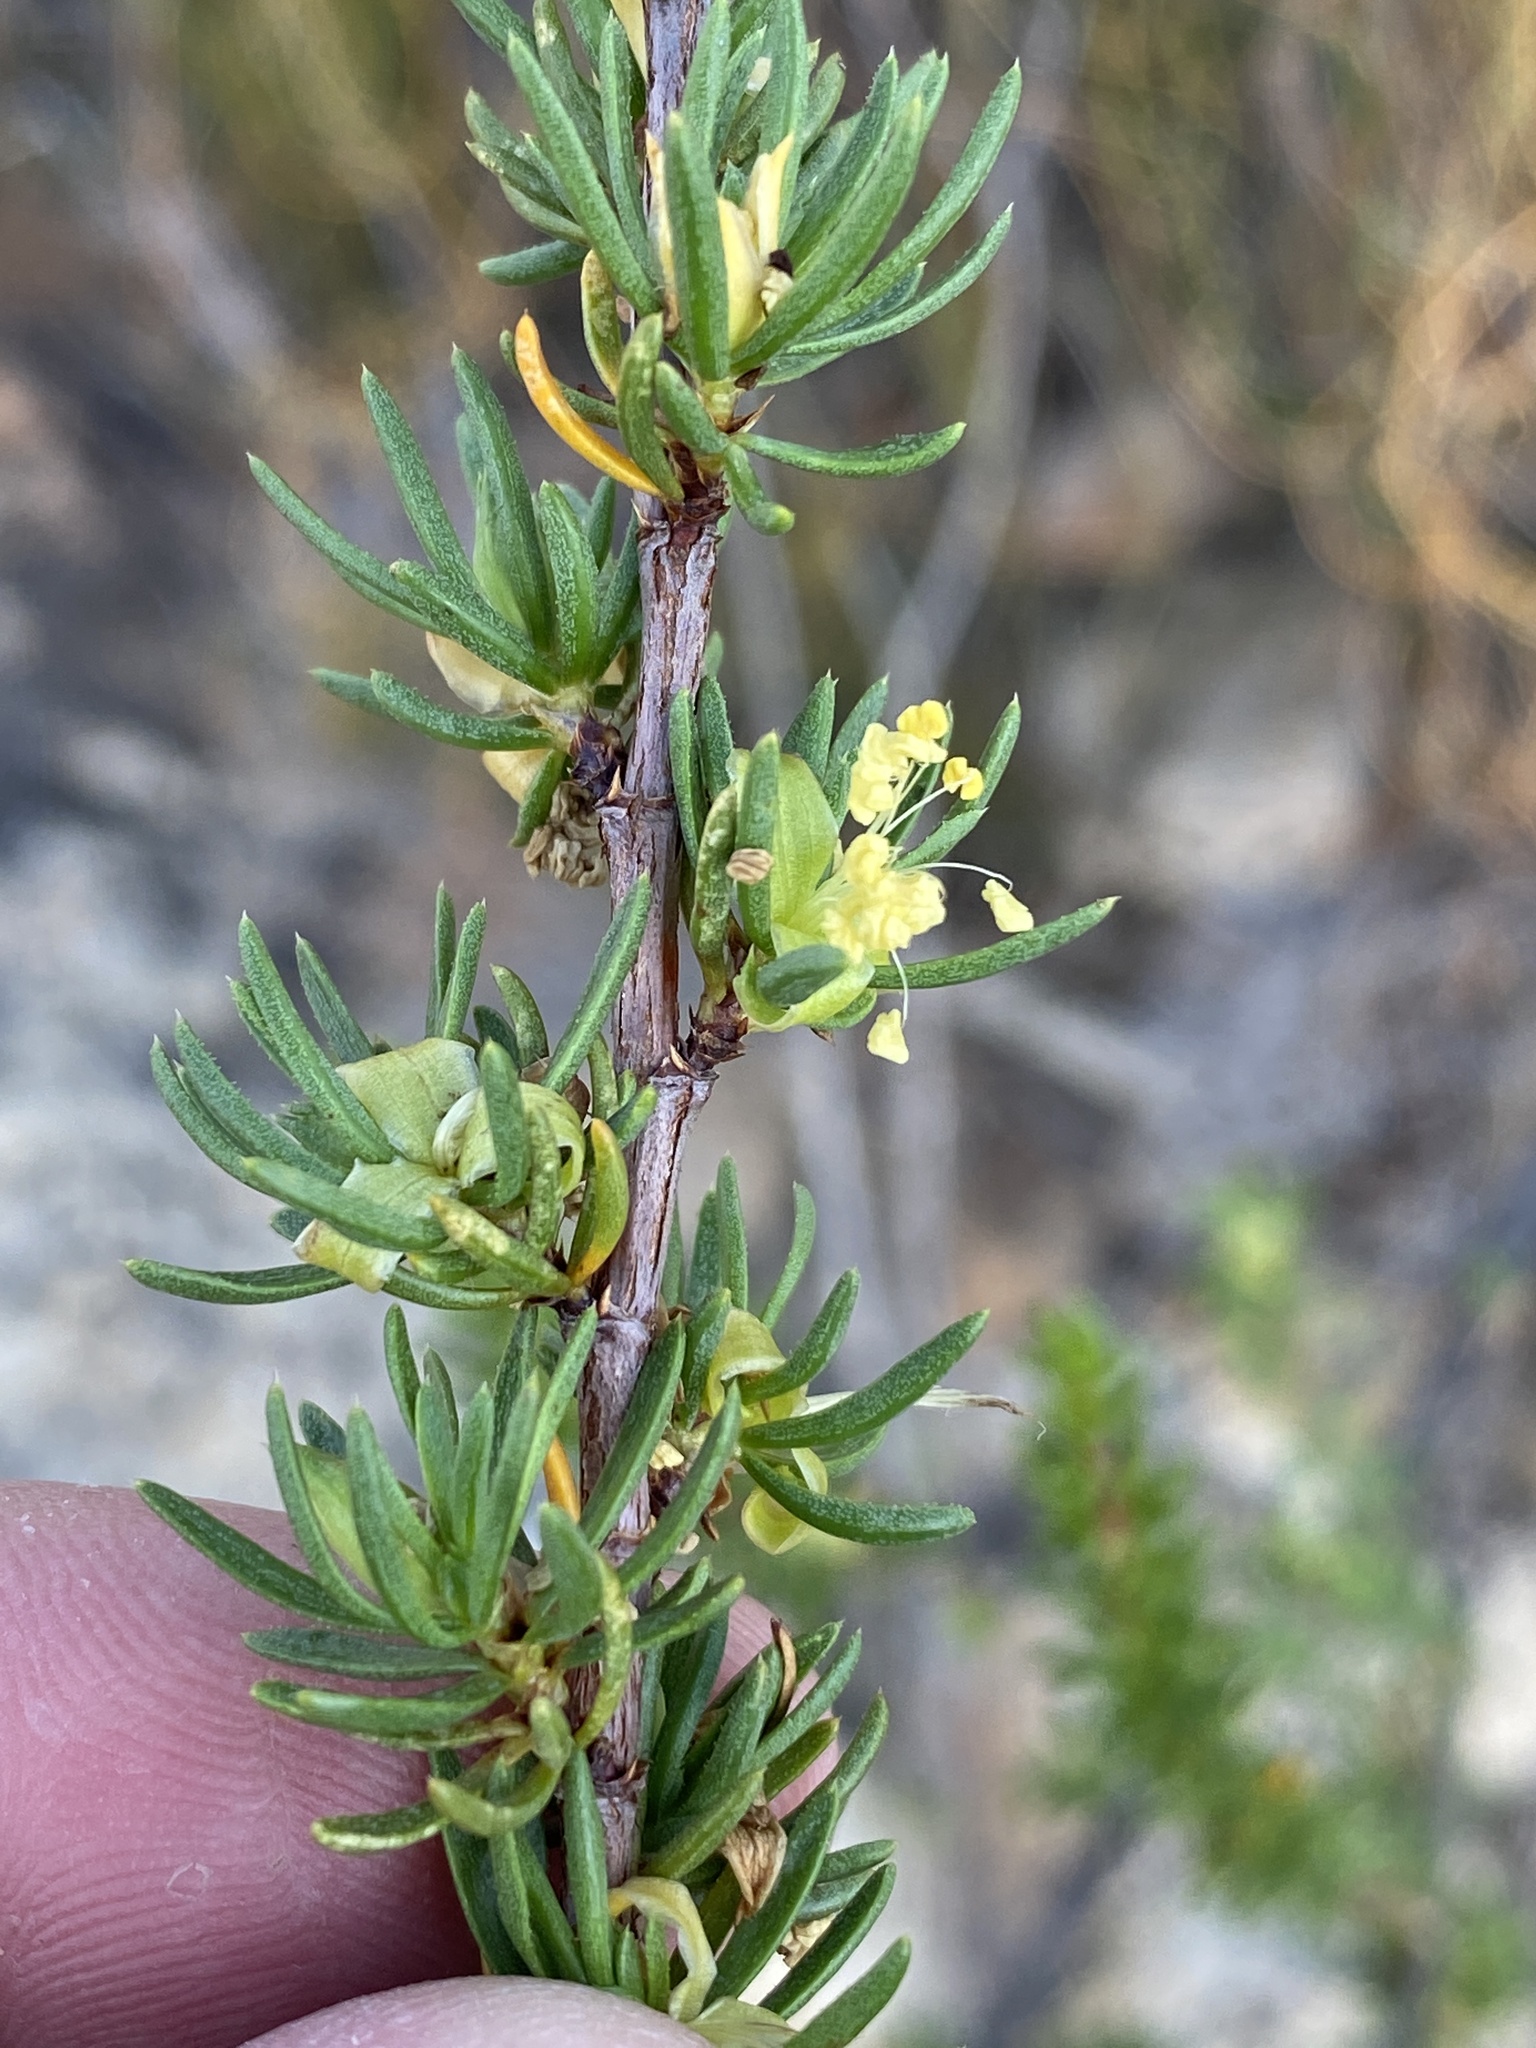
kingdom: Plantae
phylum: Tracheophyta
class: Magnoliopsida
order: Rosales
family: Rosaceae
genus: Cliffortia
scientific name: Cliffortia teretifolia
